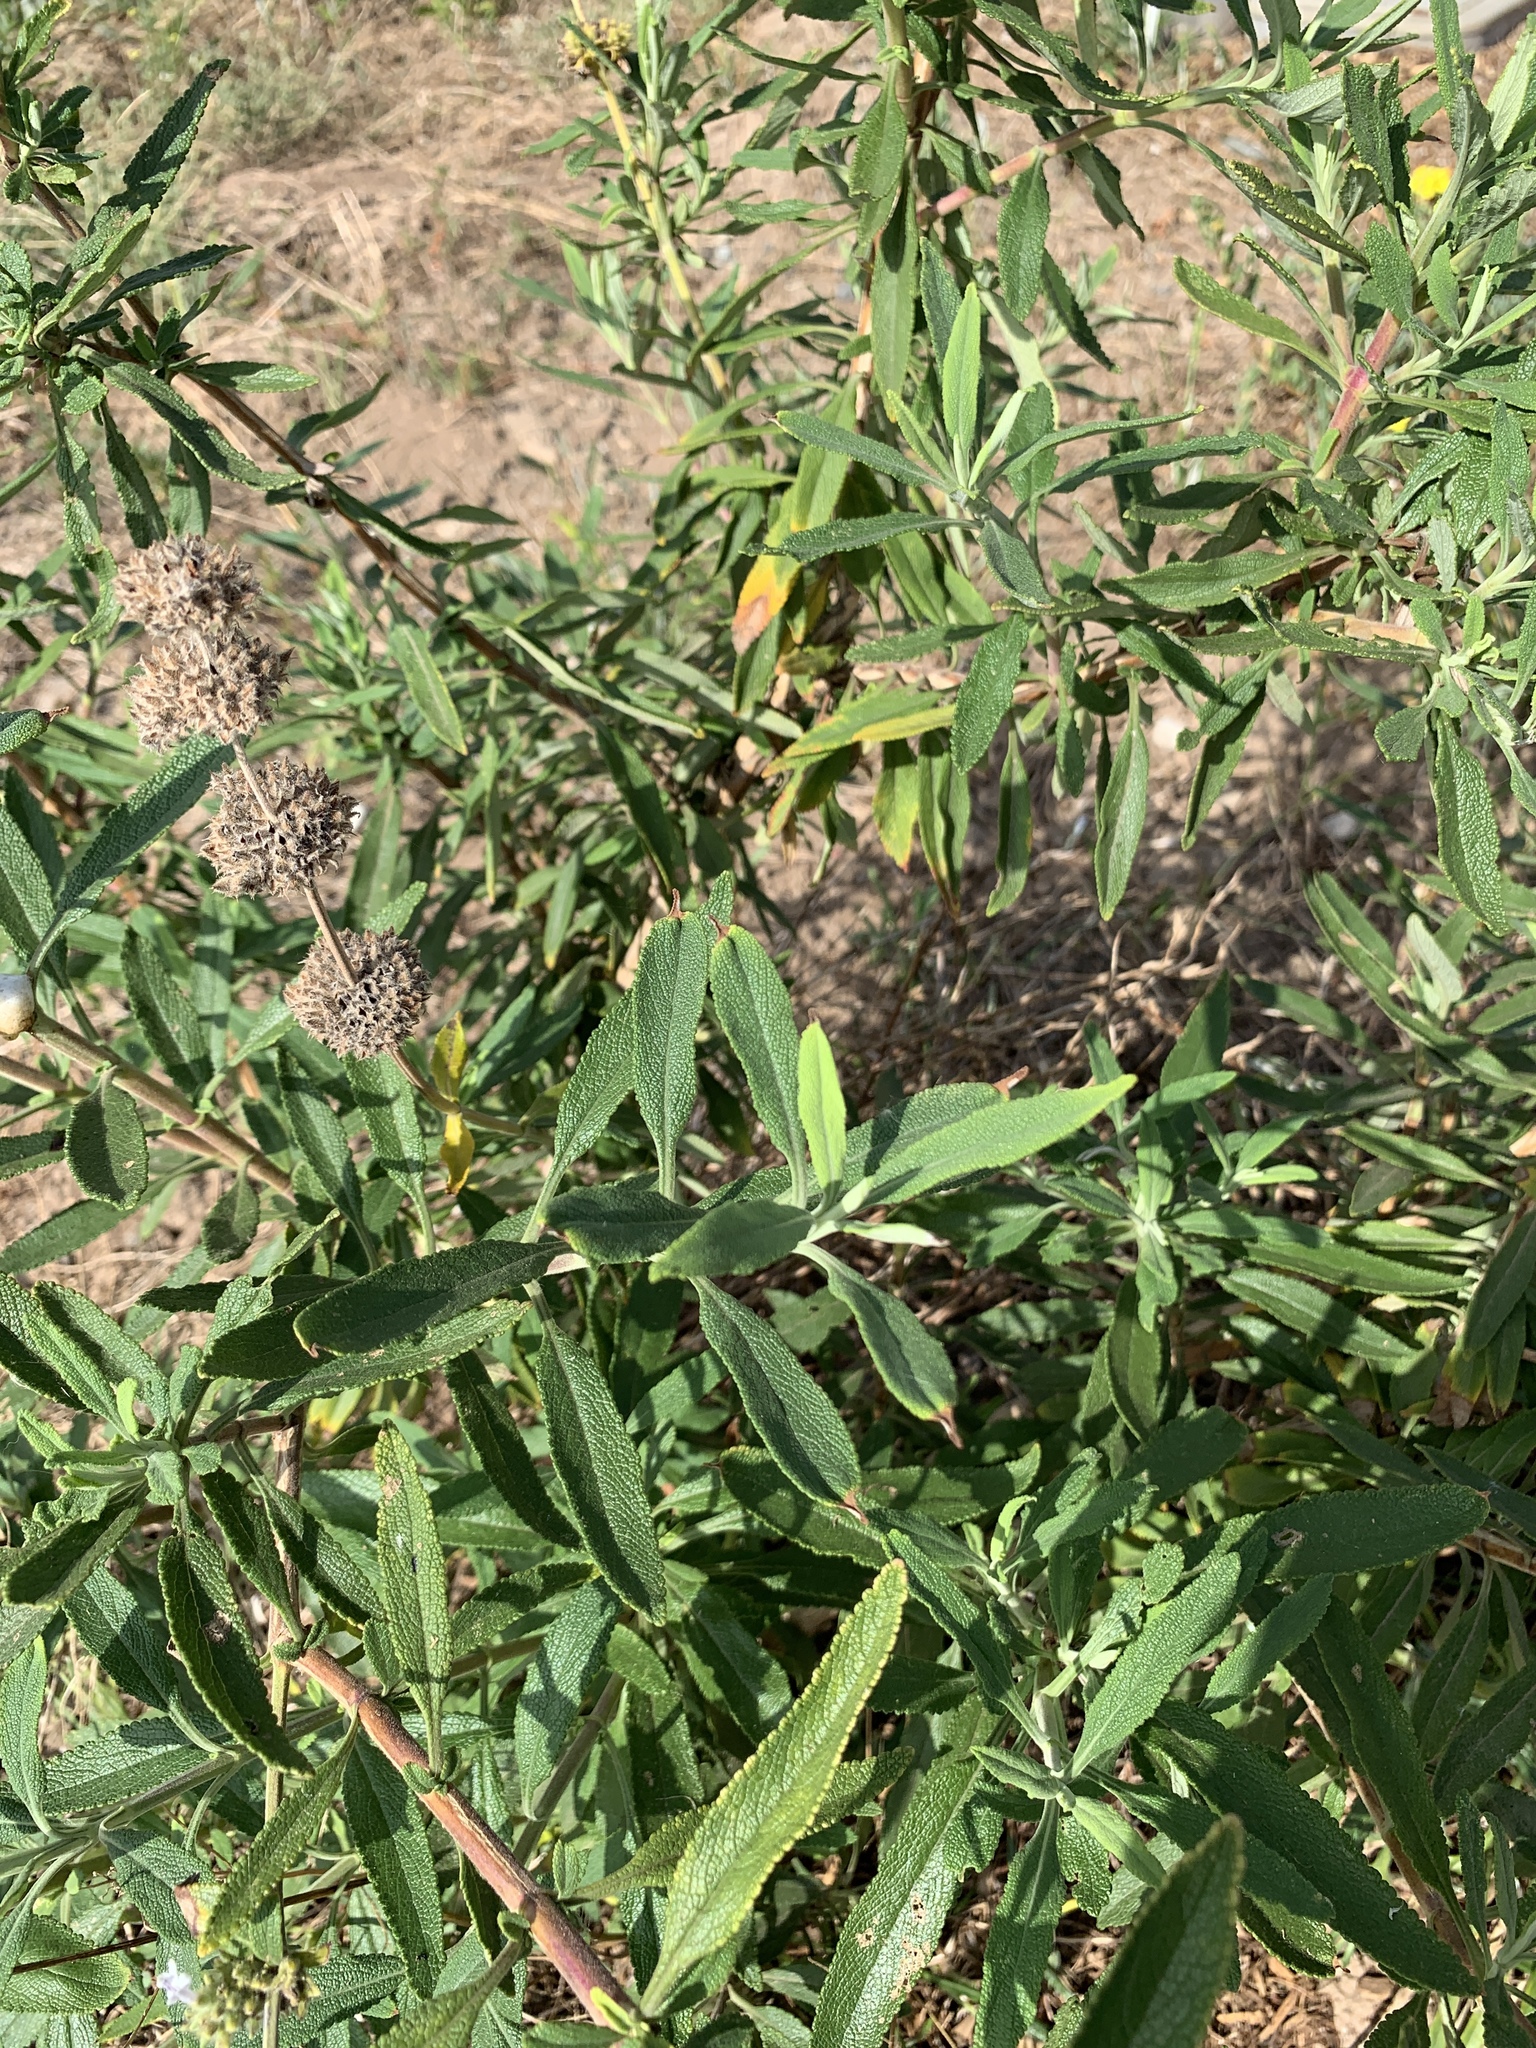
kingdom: Plantae
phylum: Tracheophyta
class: Magnoliopsida
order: Lamiales
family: Lamiaceae
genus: Salvia
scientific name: Salvia mellifera
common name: Black sage
